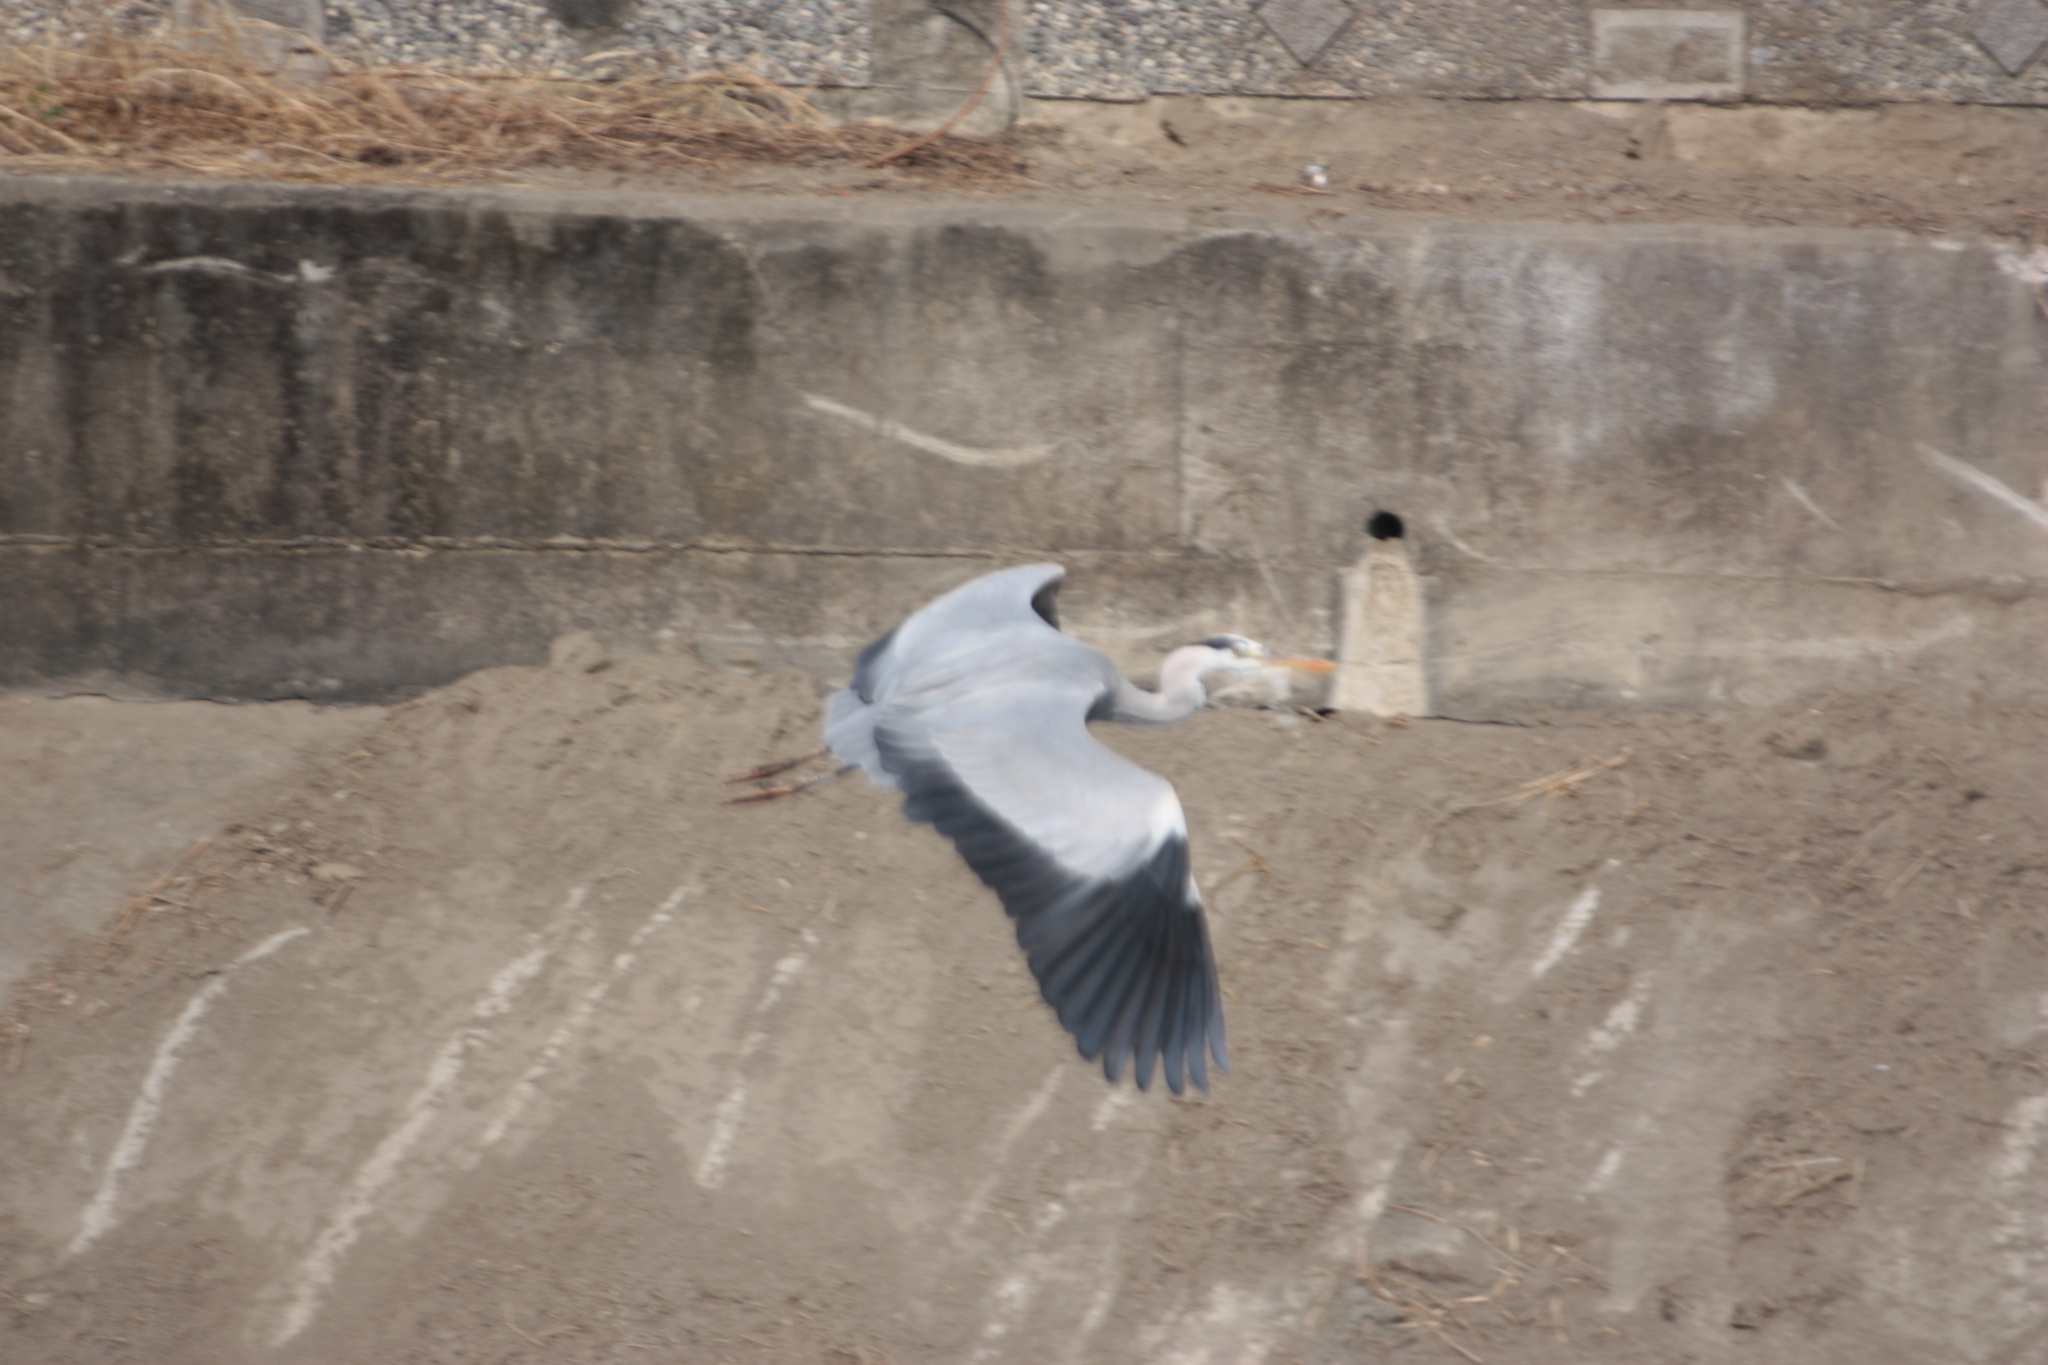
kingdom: Animalia
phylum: Chordata
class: Aves
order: Pelecaniformes
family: Ardeidae
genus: Ardea
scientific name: Ardea cinerea
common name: Grey heron
